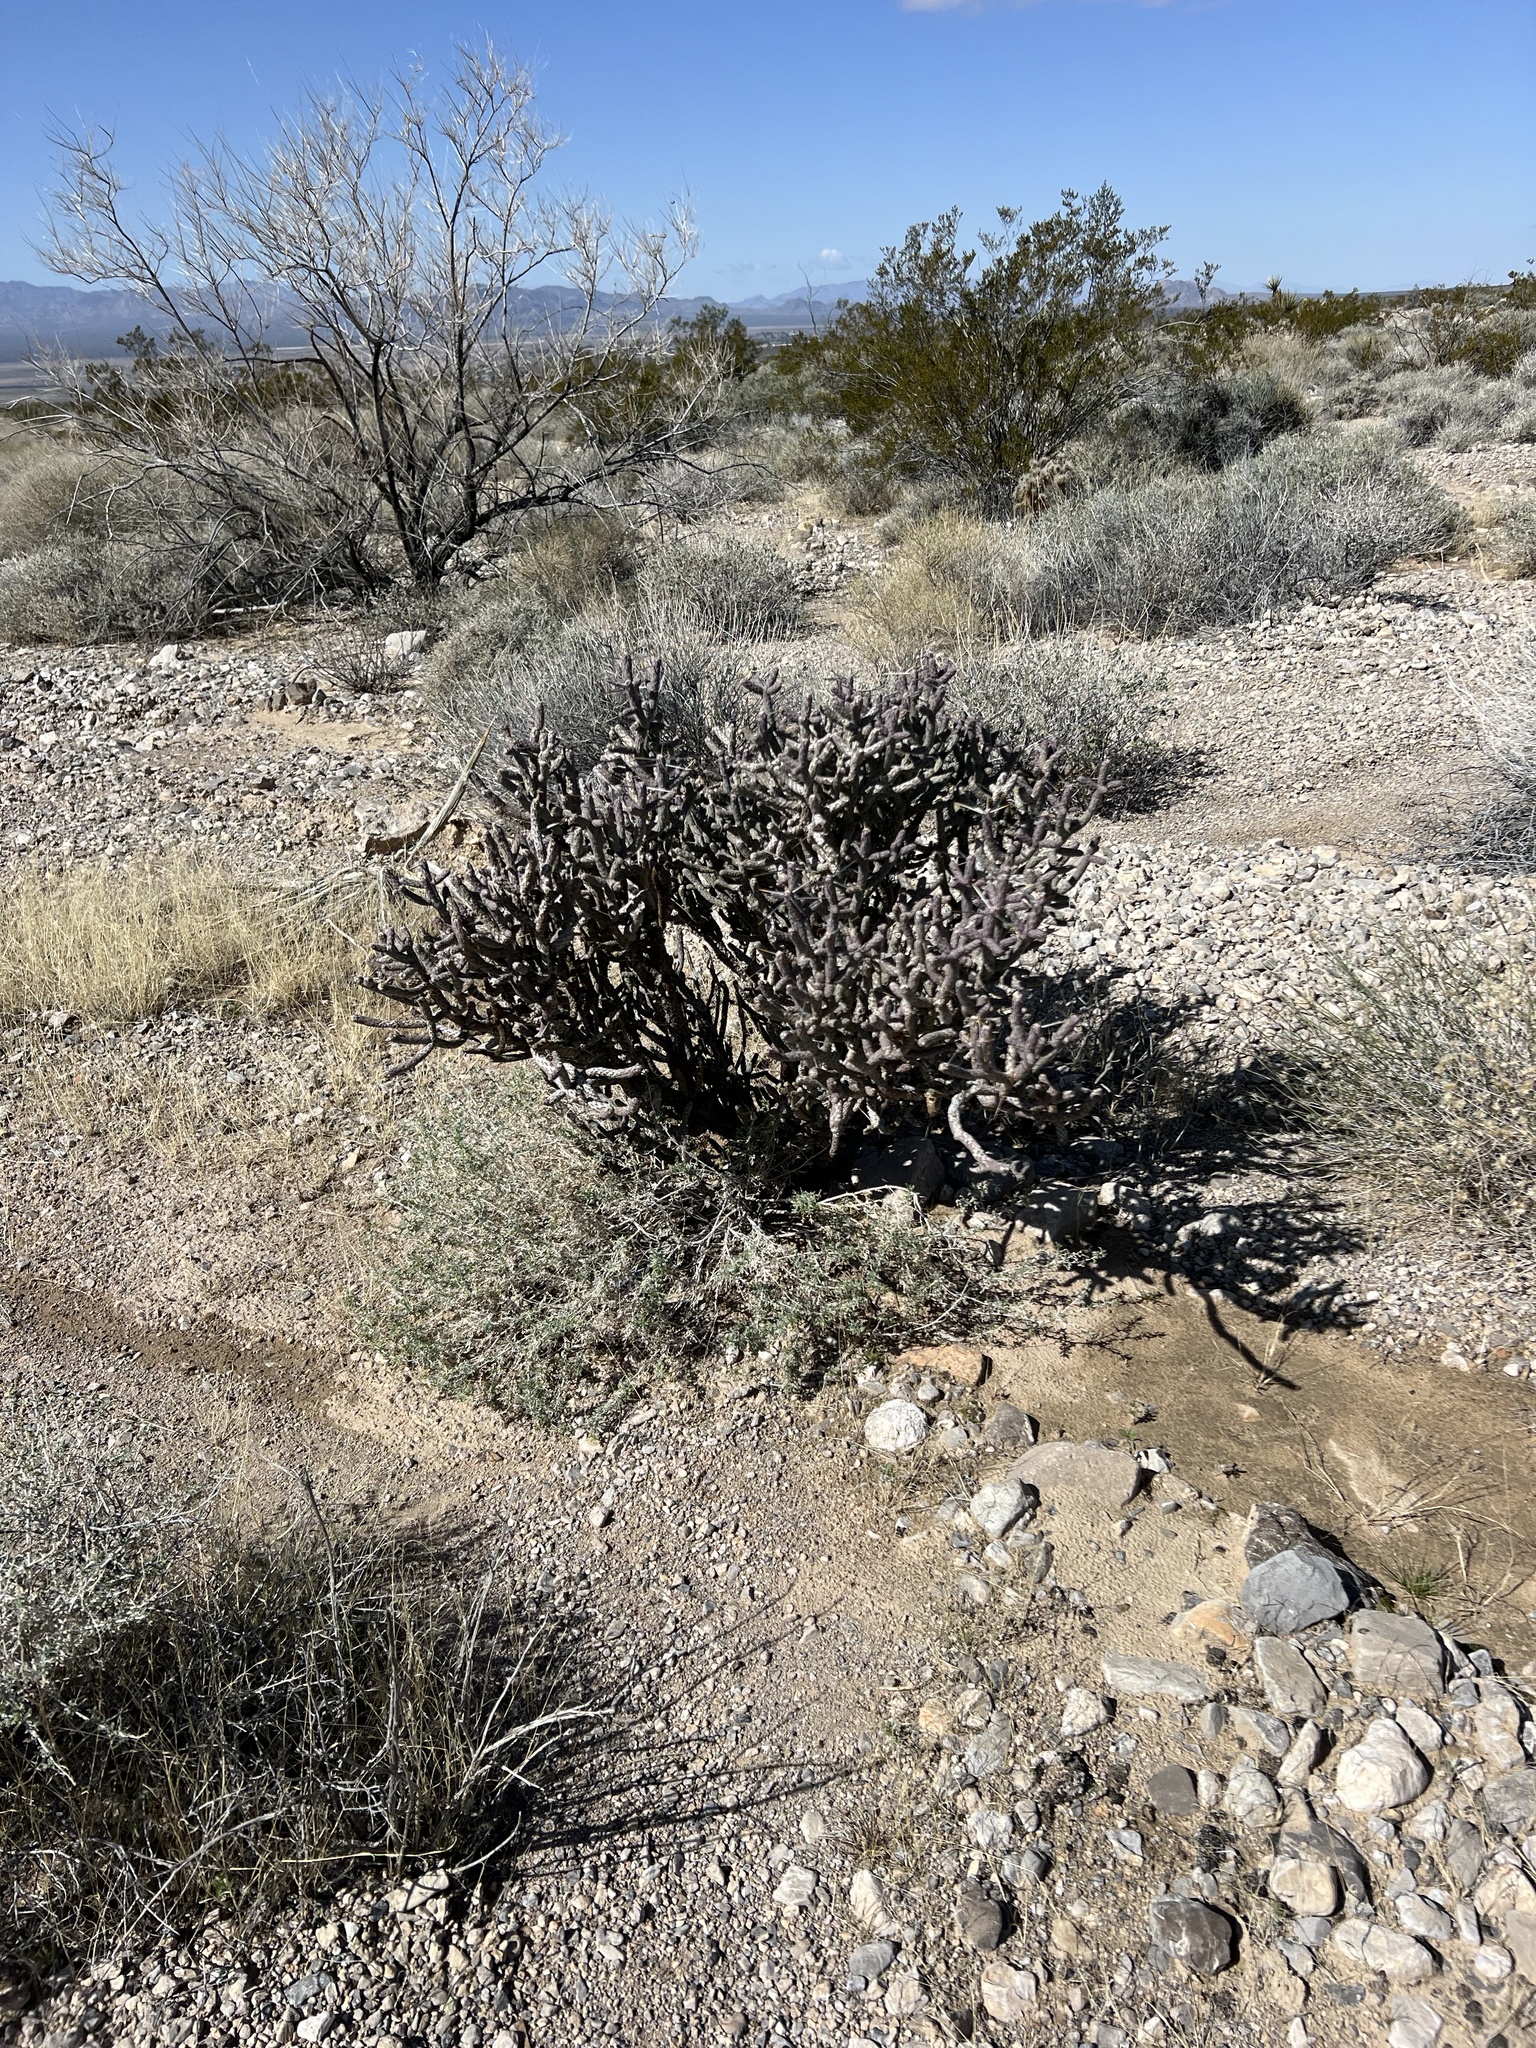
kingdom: Plantae
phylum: Tracheophyta
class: Magnoliopsida
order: Caryophyllales
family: Cactaceae
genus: Cylindropuntia
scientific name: Cylindropuntia ramosissima
